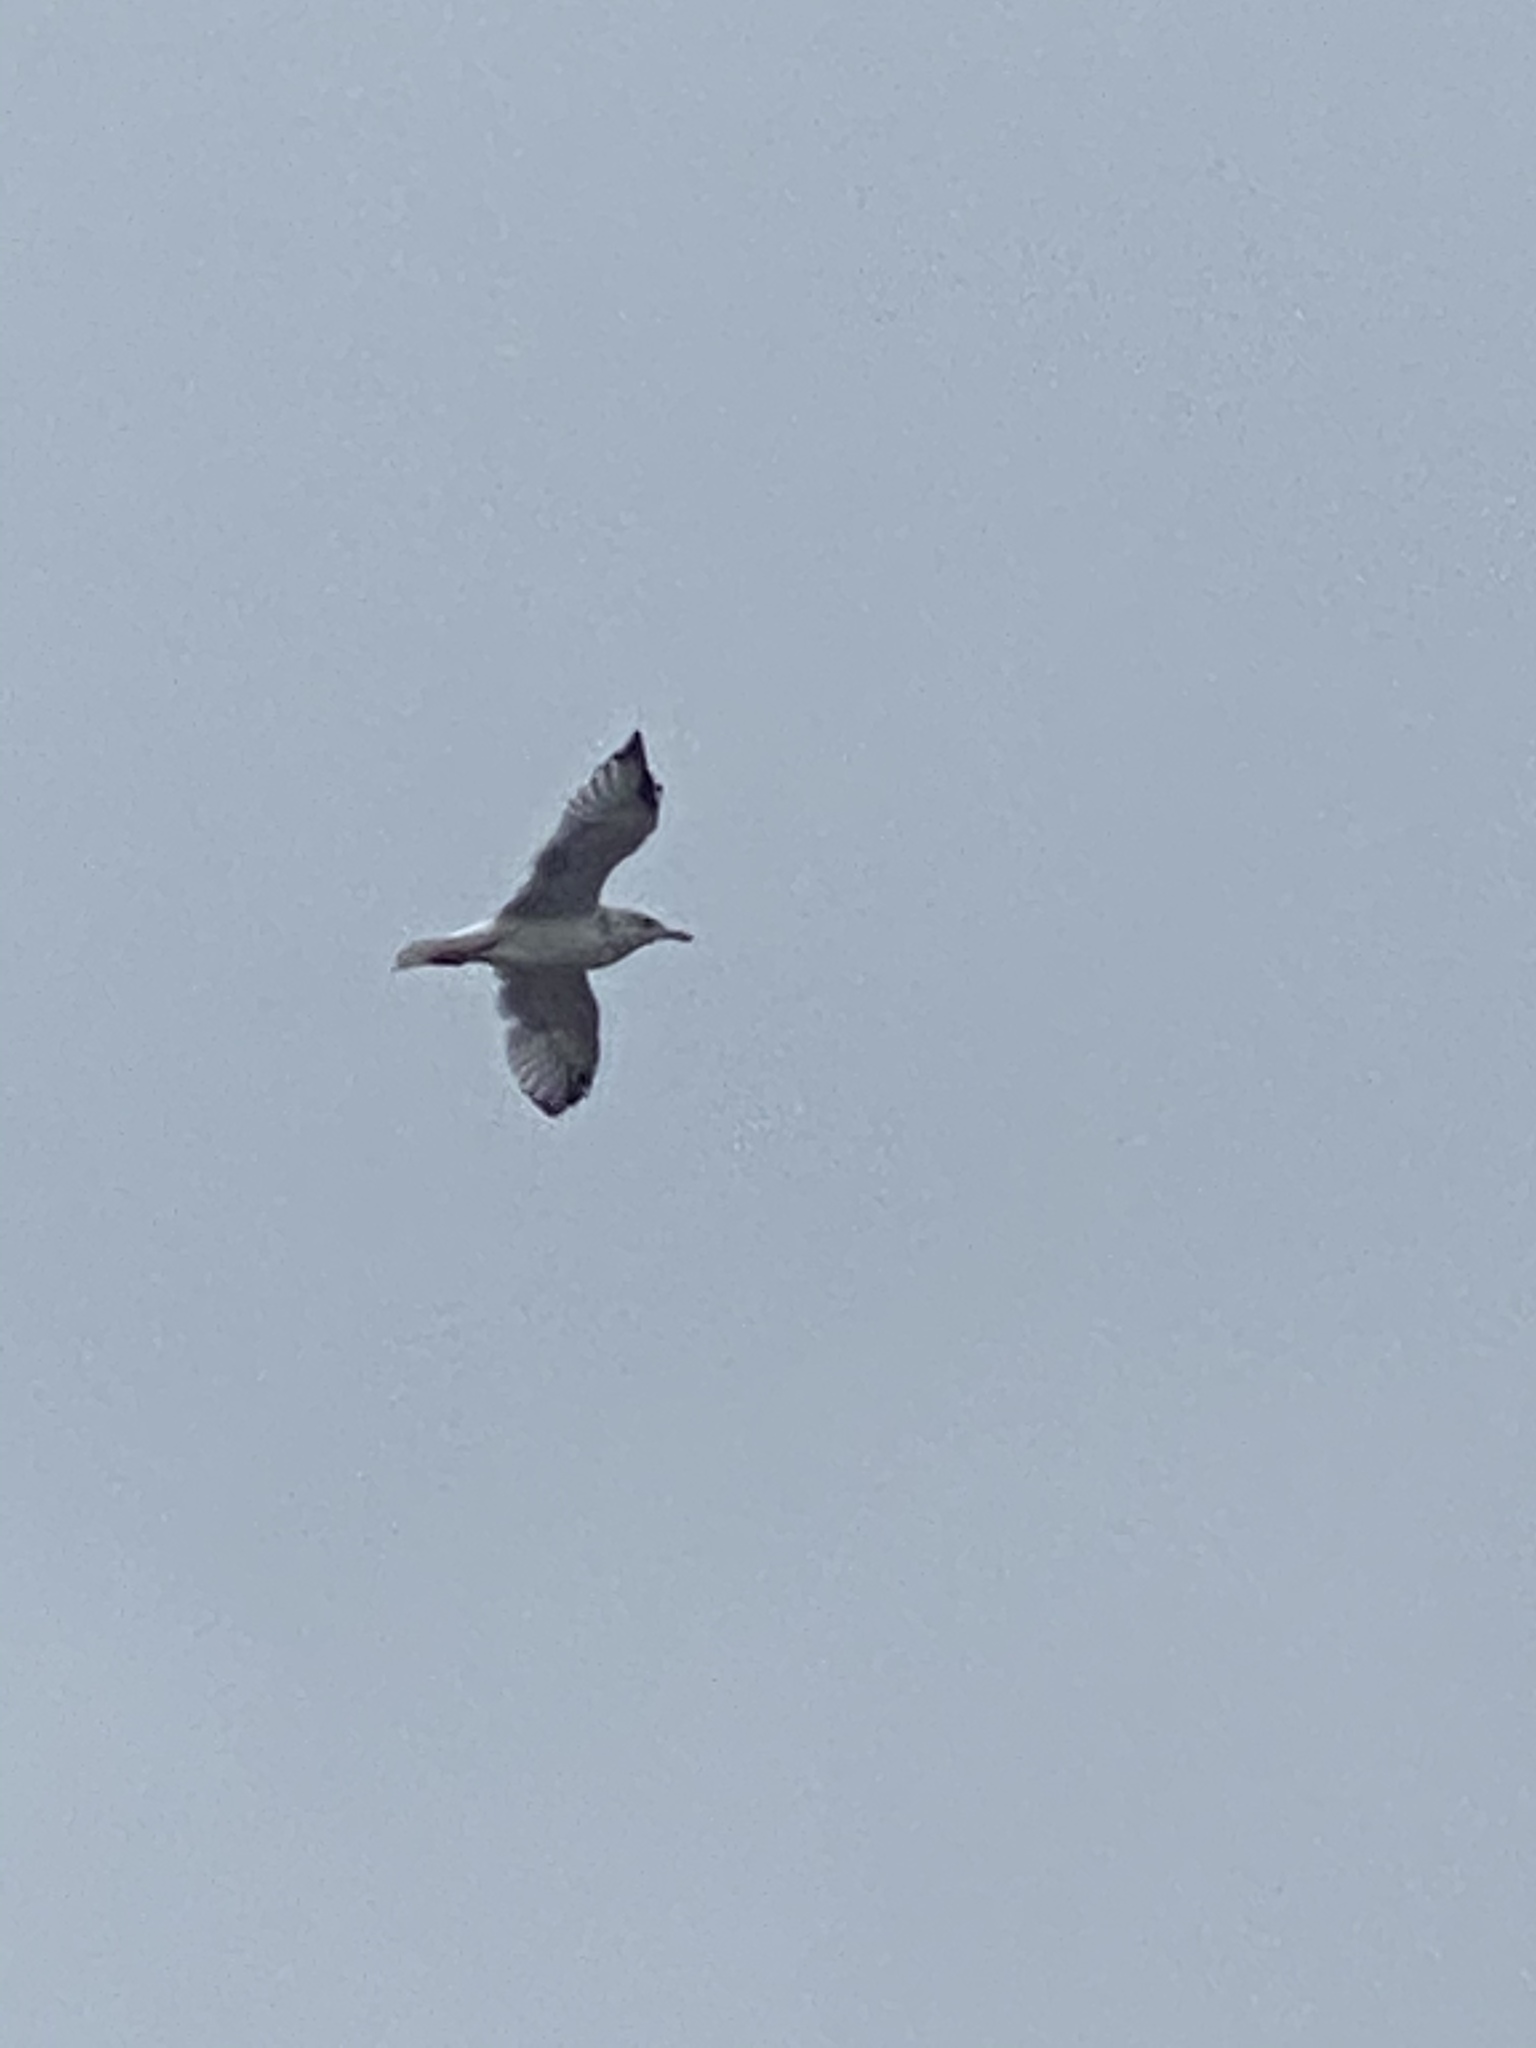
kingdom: Animalia
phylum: Chordata
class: Aves
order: Charadriiformes
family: Laridae
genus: Larus
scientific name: Larus californicus
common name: California gull
